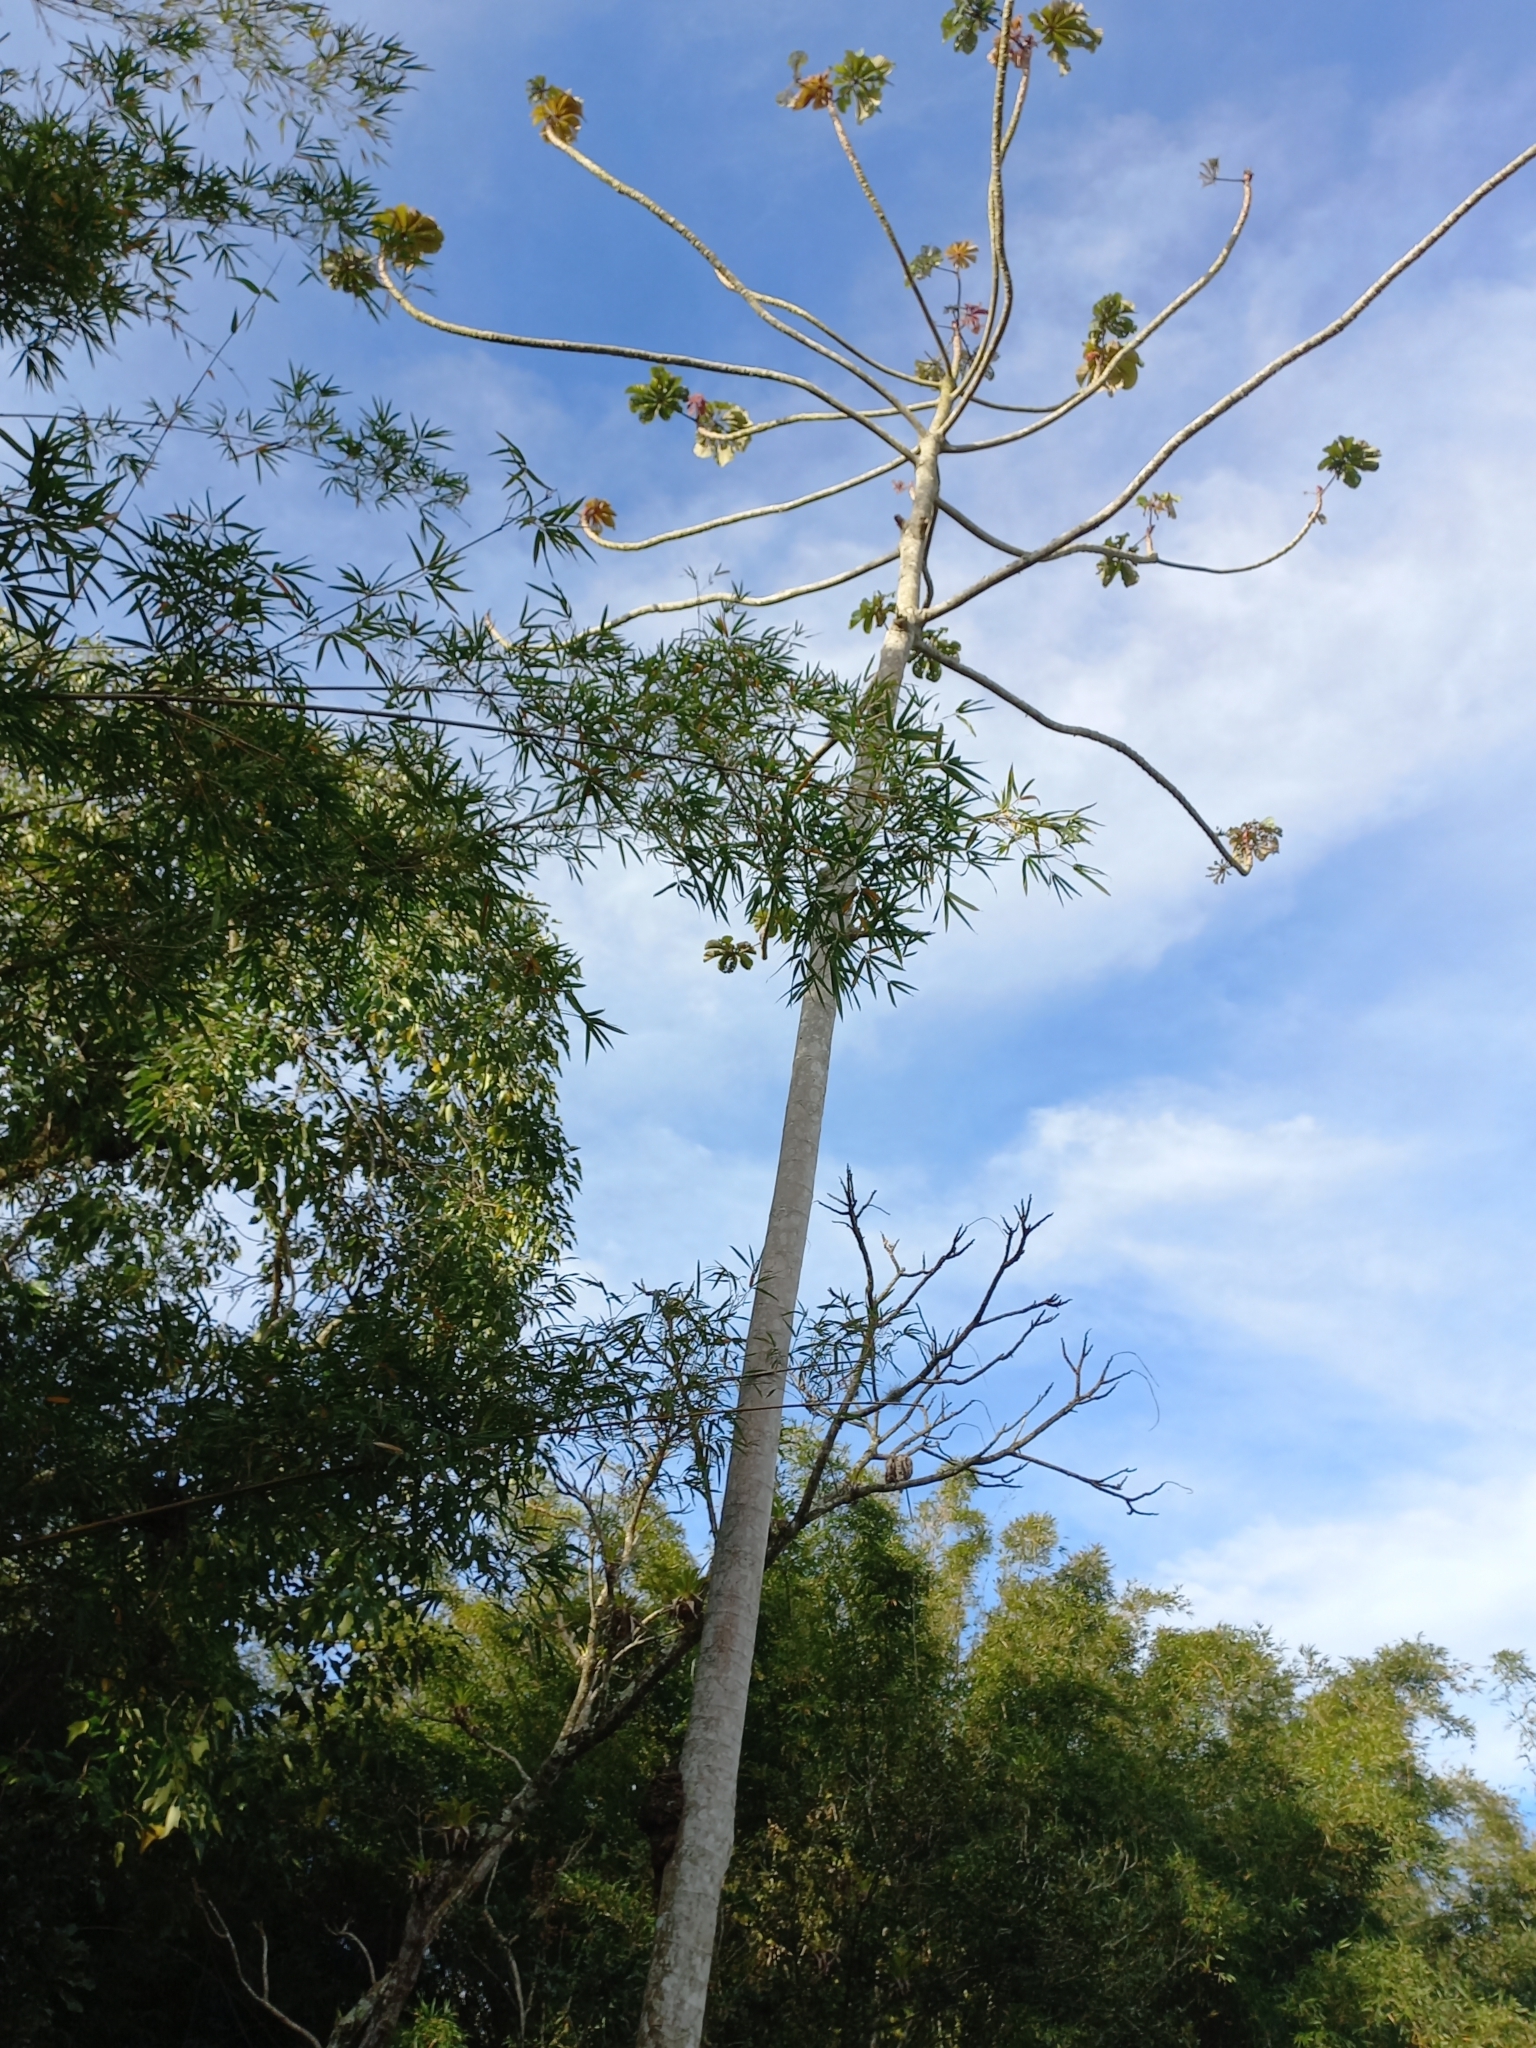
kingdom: Plantae
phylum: Tracheophyta
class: Magnoliopsida
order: Rosales
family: Urticaceae
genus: Cecropia
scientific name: Cecropia glaziovii
